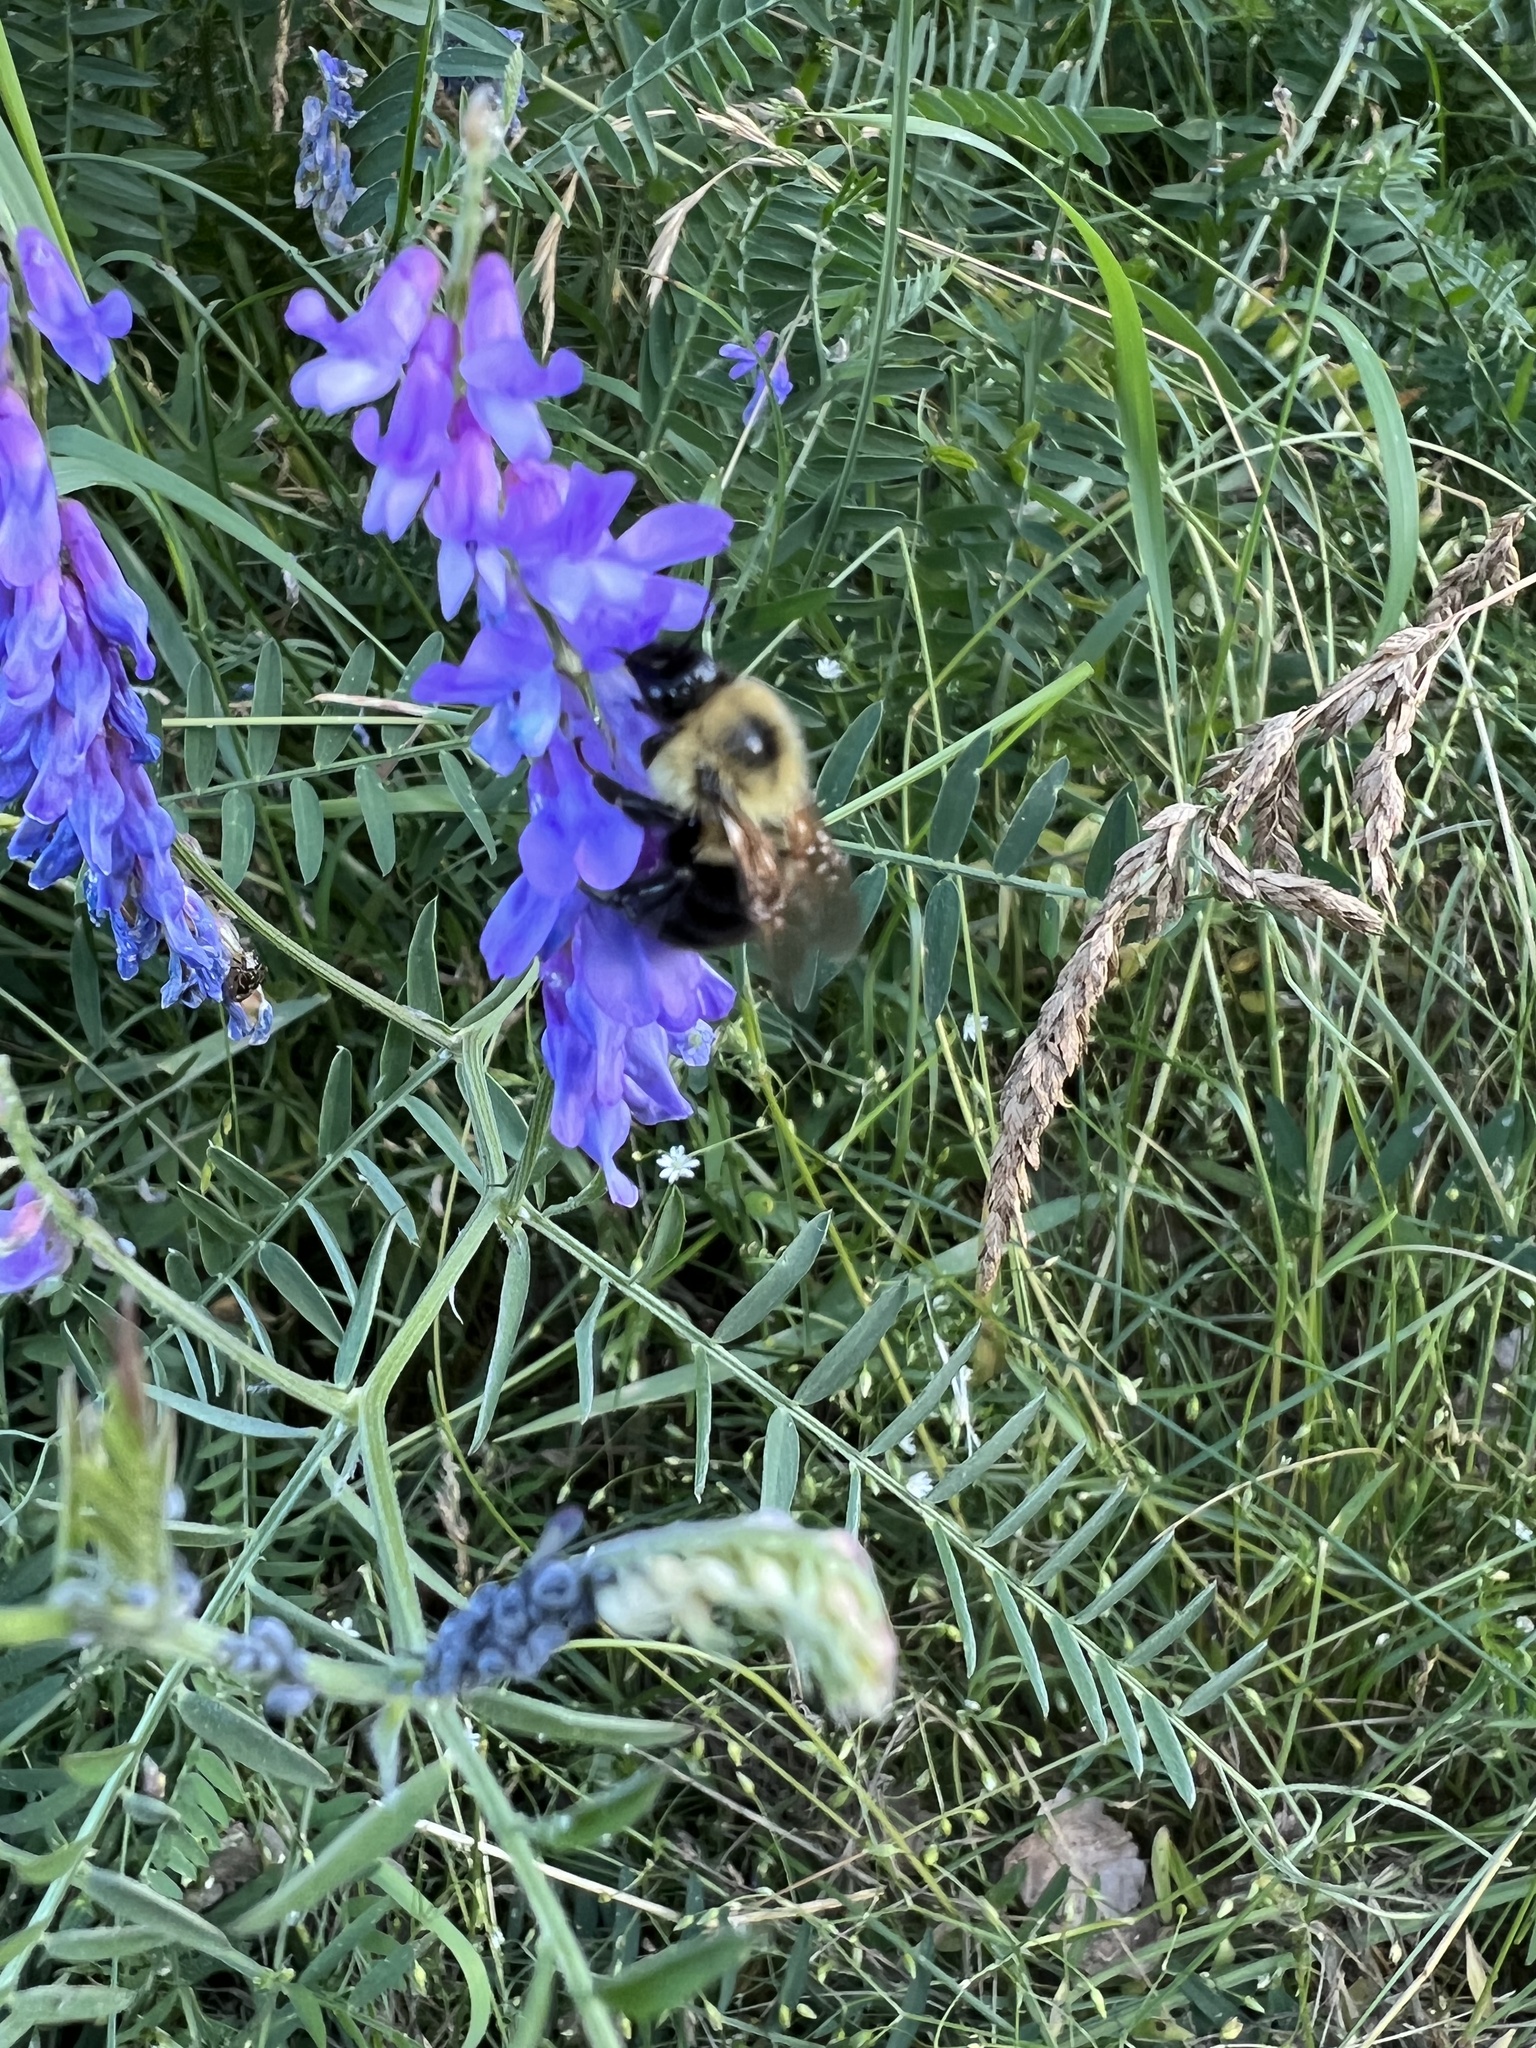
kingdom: Animalia
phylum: Arthropoda
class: Insecta
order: Hymenoptera
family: Apidae
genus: Bombus
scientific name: Bombus bimaculatus
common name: Two-spotted bumble bee
